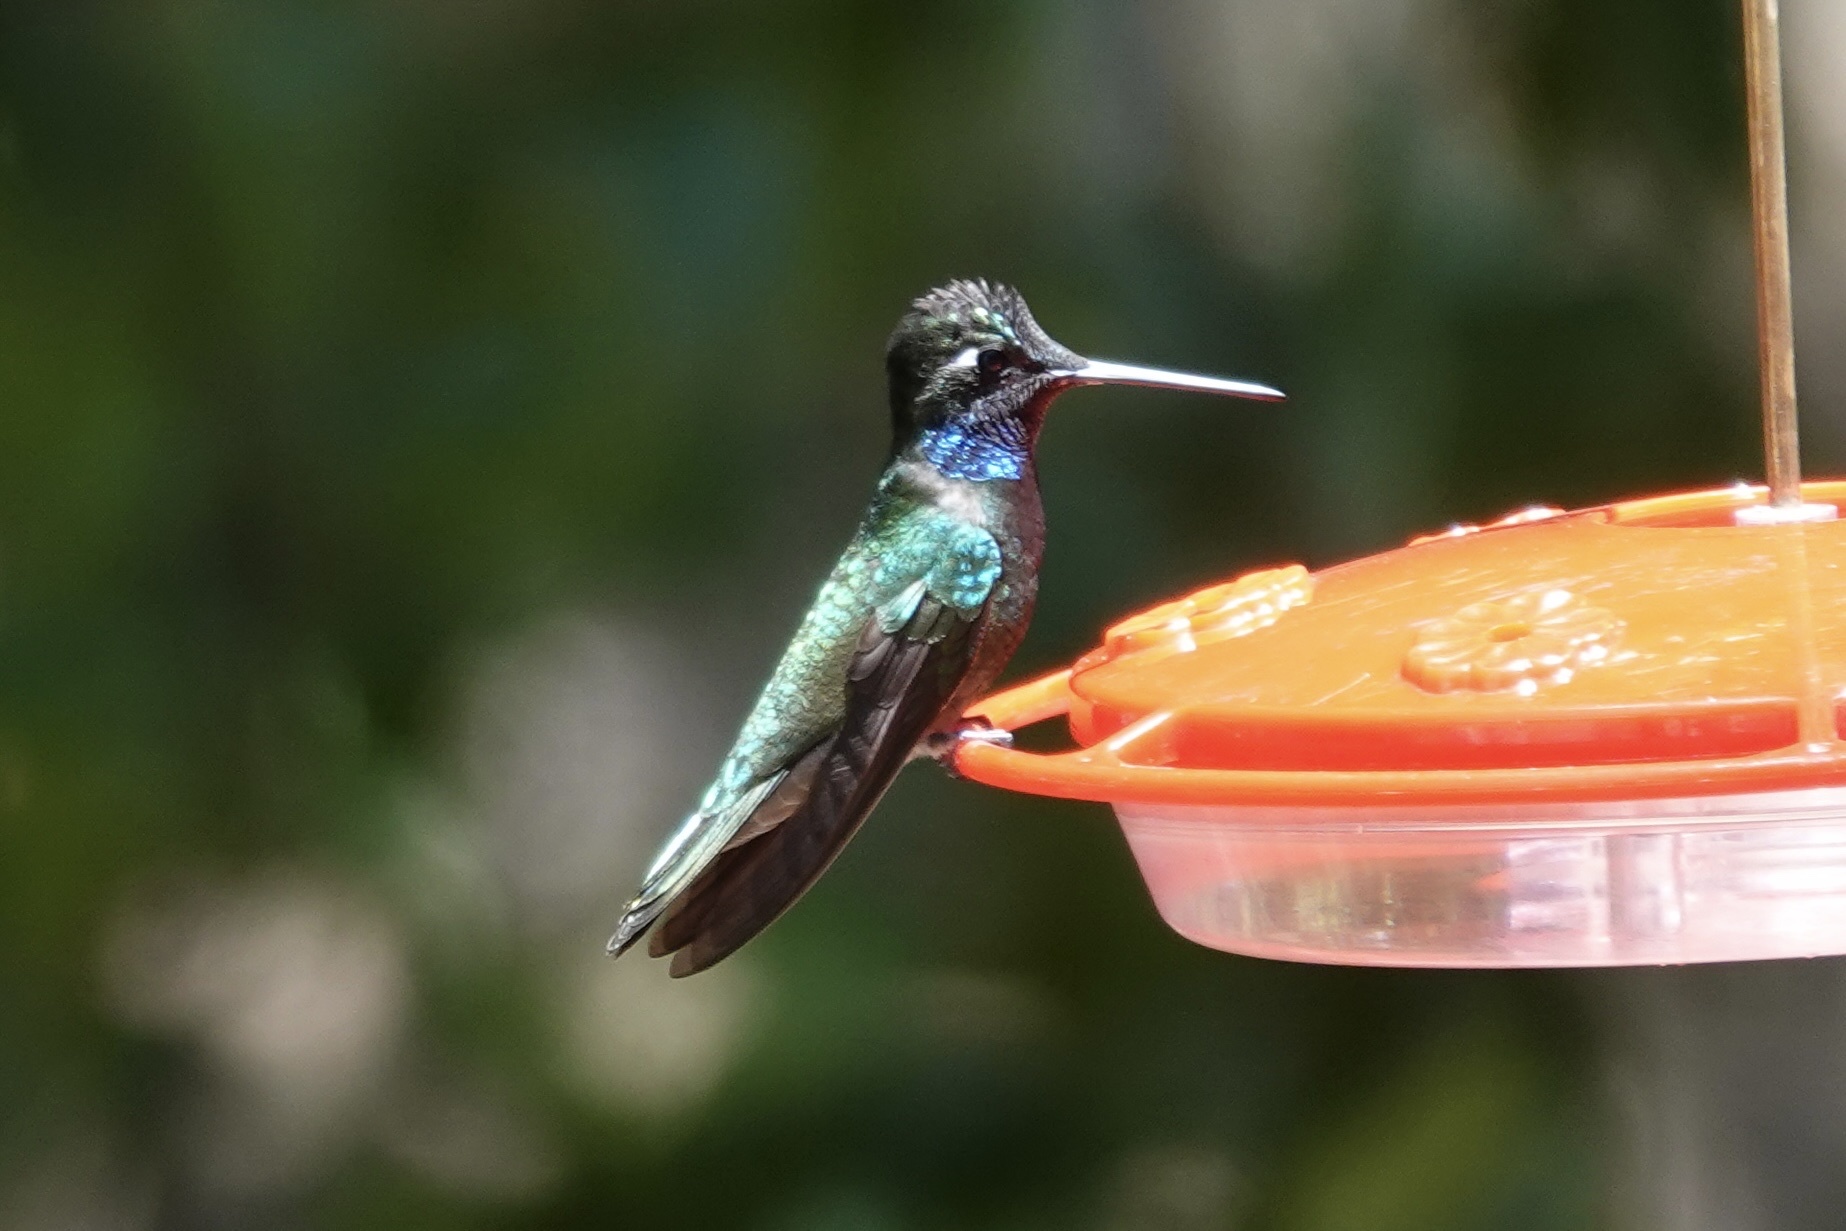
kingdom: Animalia
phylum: Chordata
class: Aves
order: Apodiformes
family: Trochilidae
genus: Eugenes
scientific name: Eugenes fulgens
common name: Magnificent hummingbird
